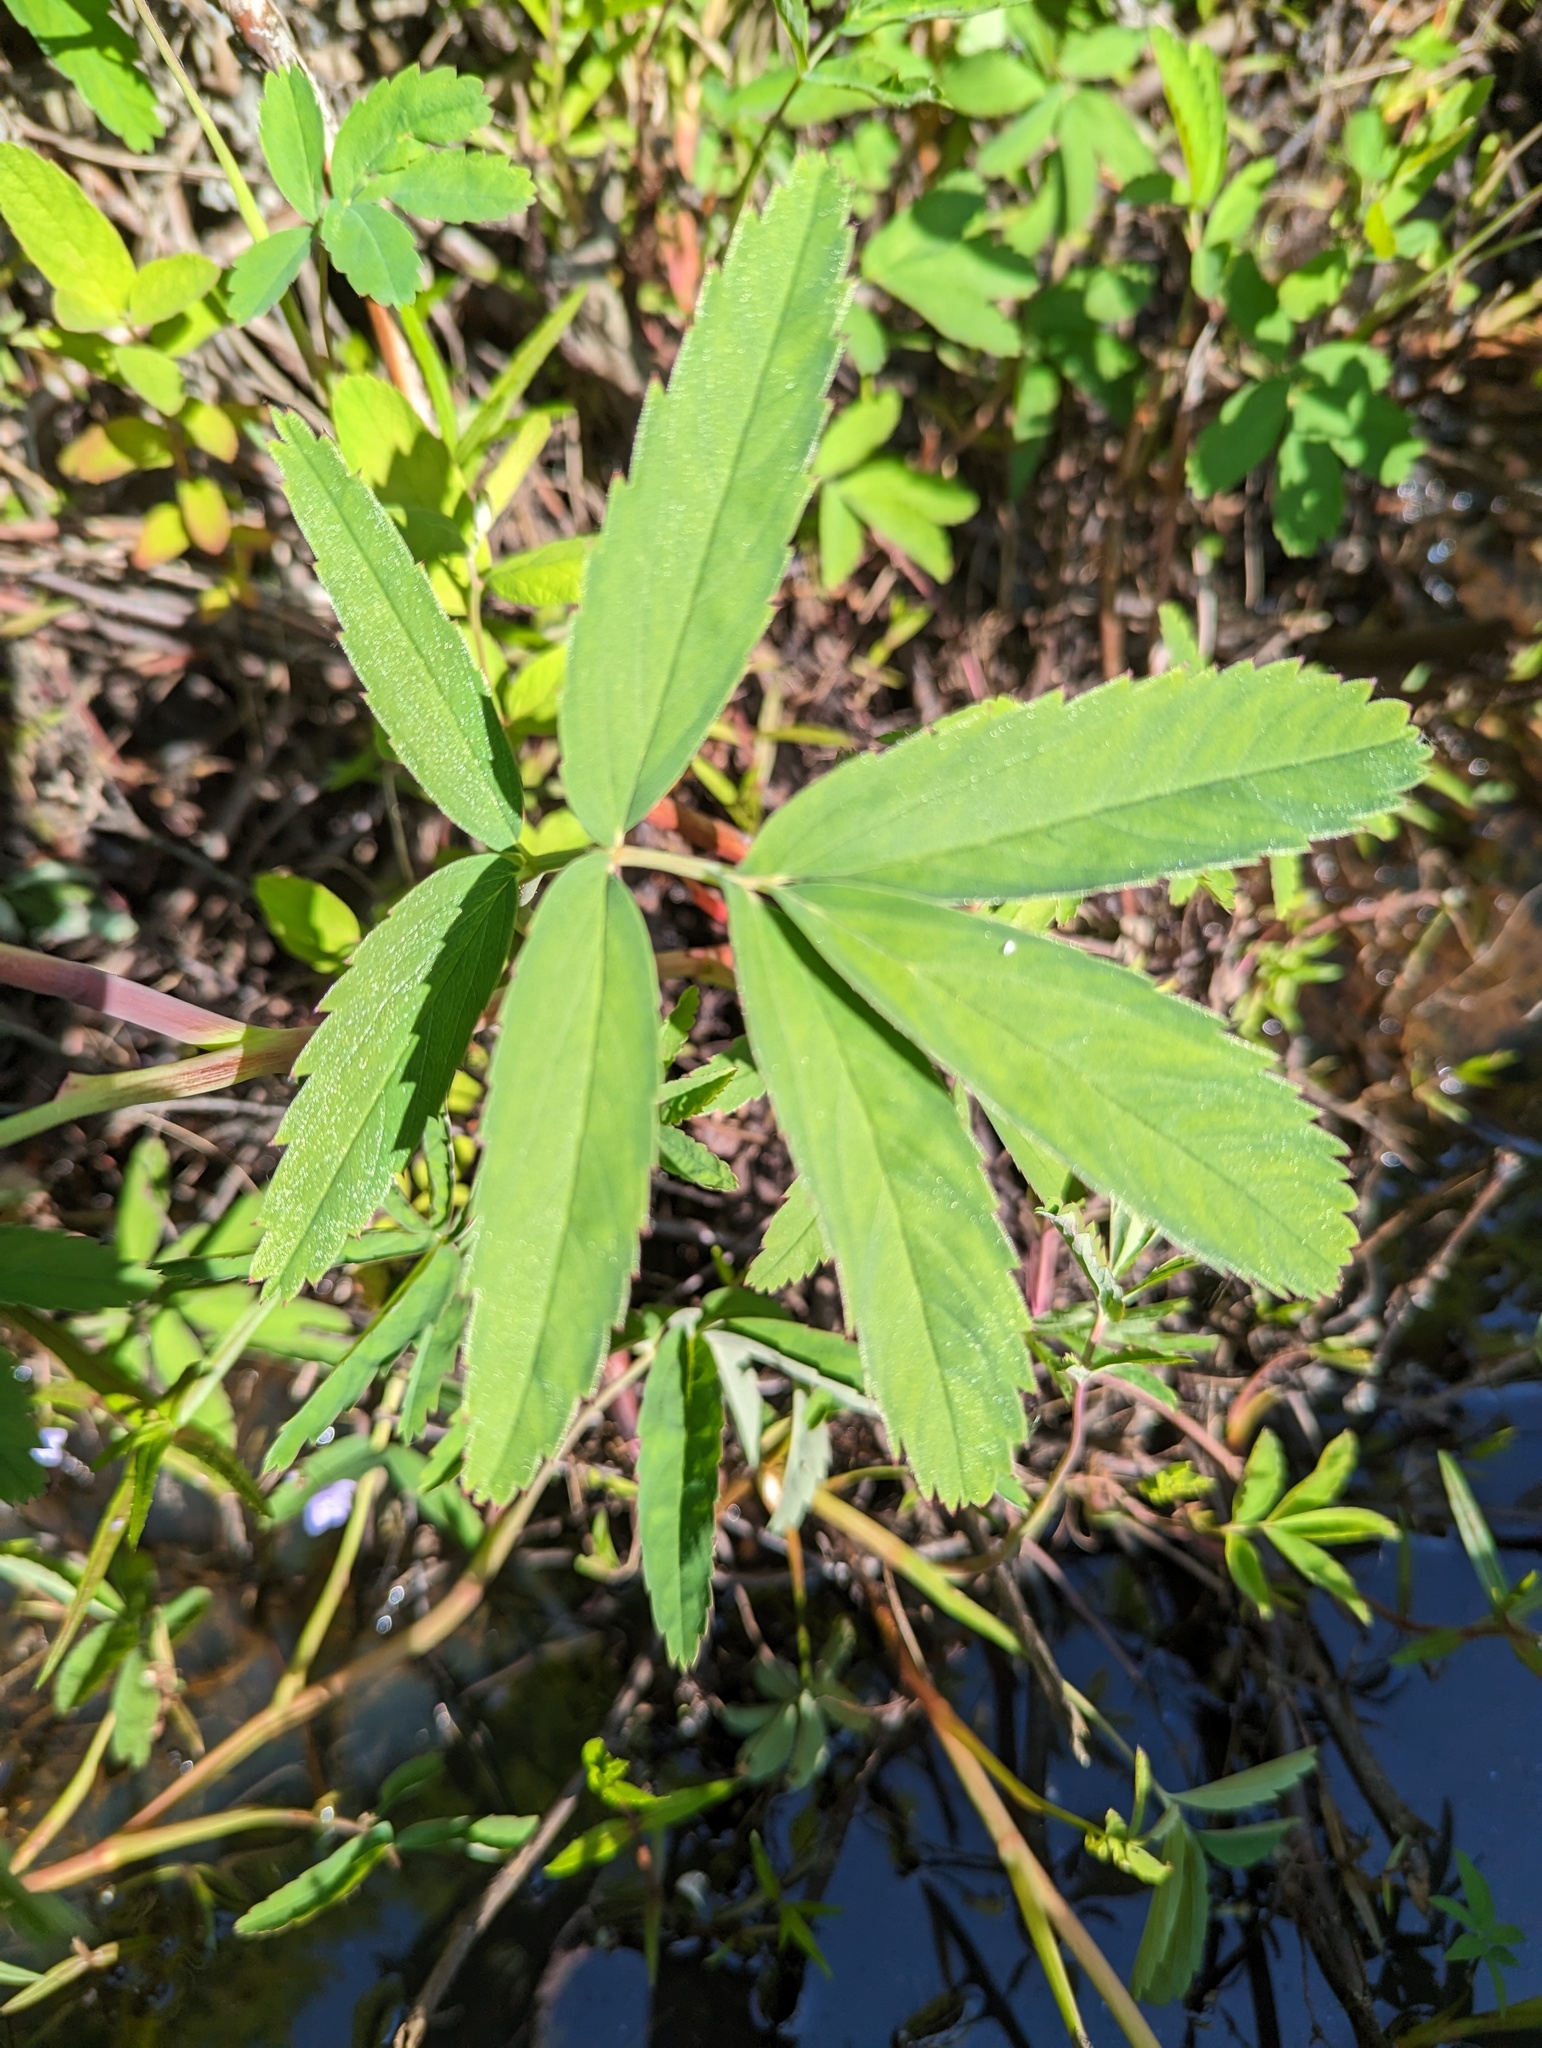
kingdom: Plantae
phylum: Tracheophyta
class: Magnoliopsida
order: Rosales
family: Rosaceae
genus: Comarum
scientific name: Comarum palustre
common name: Marsh cinquefoil
